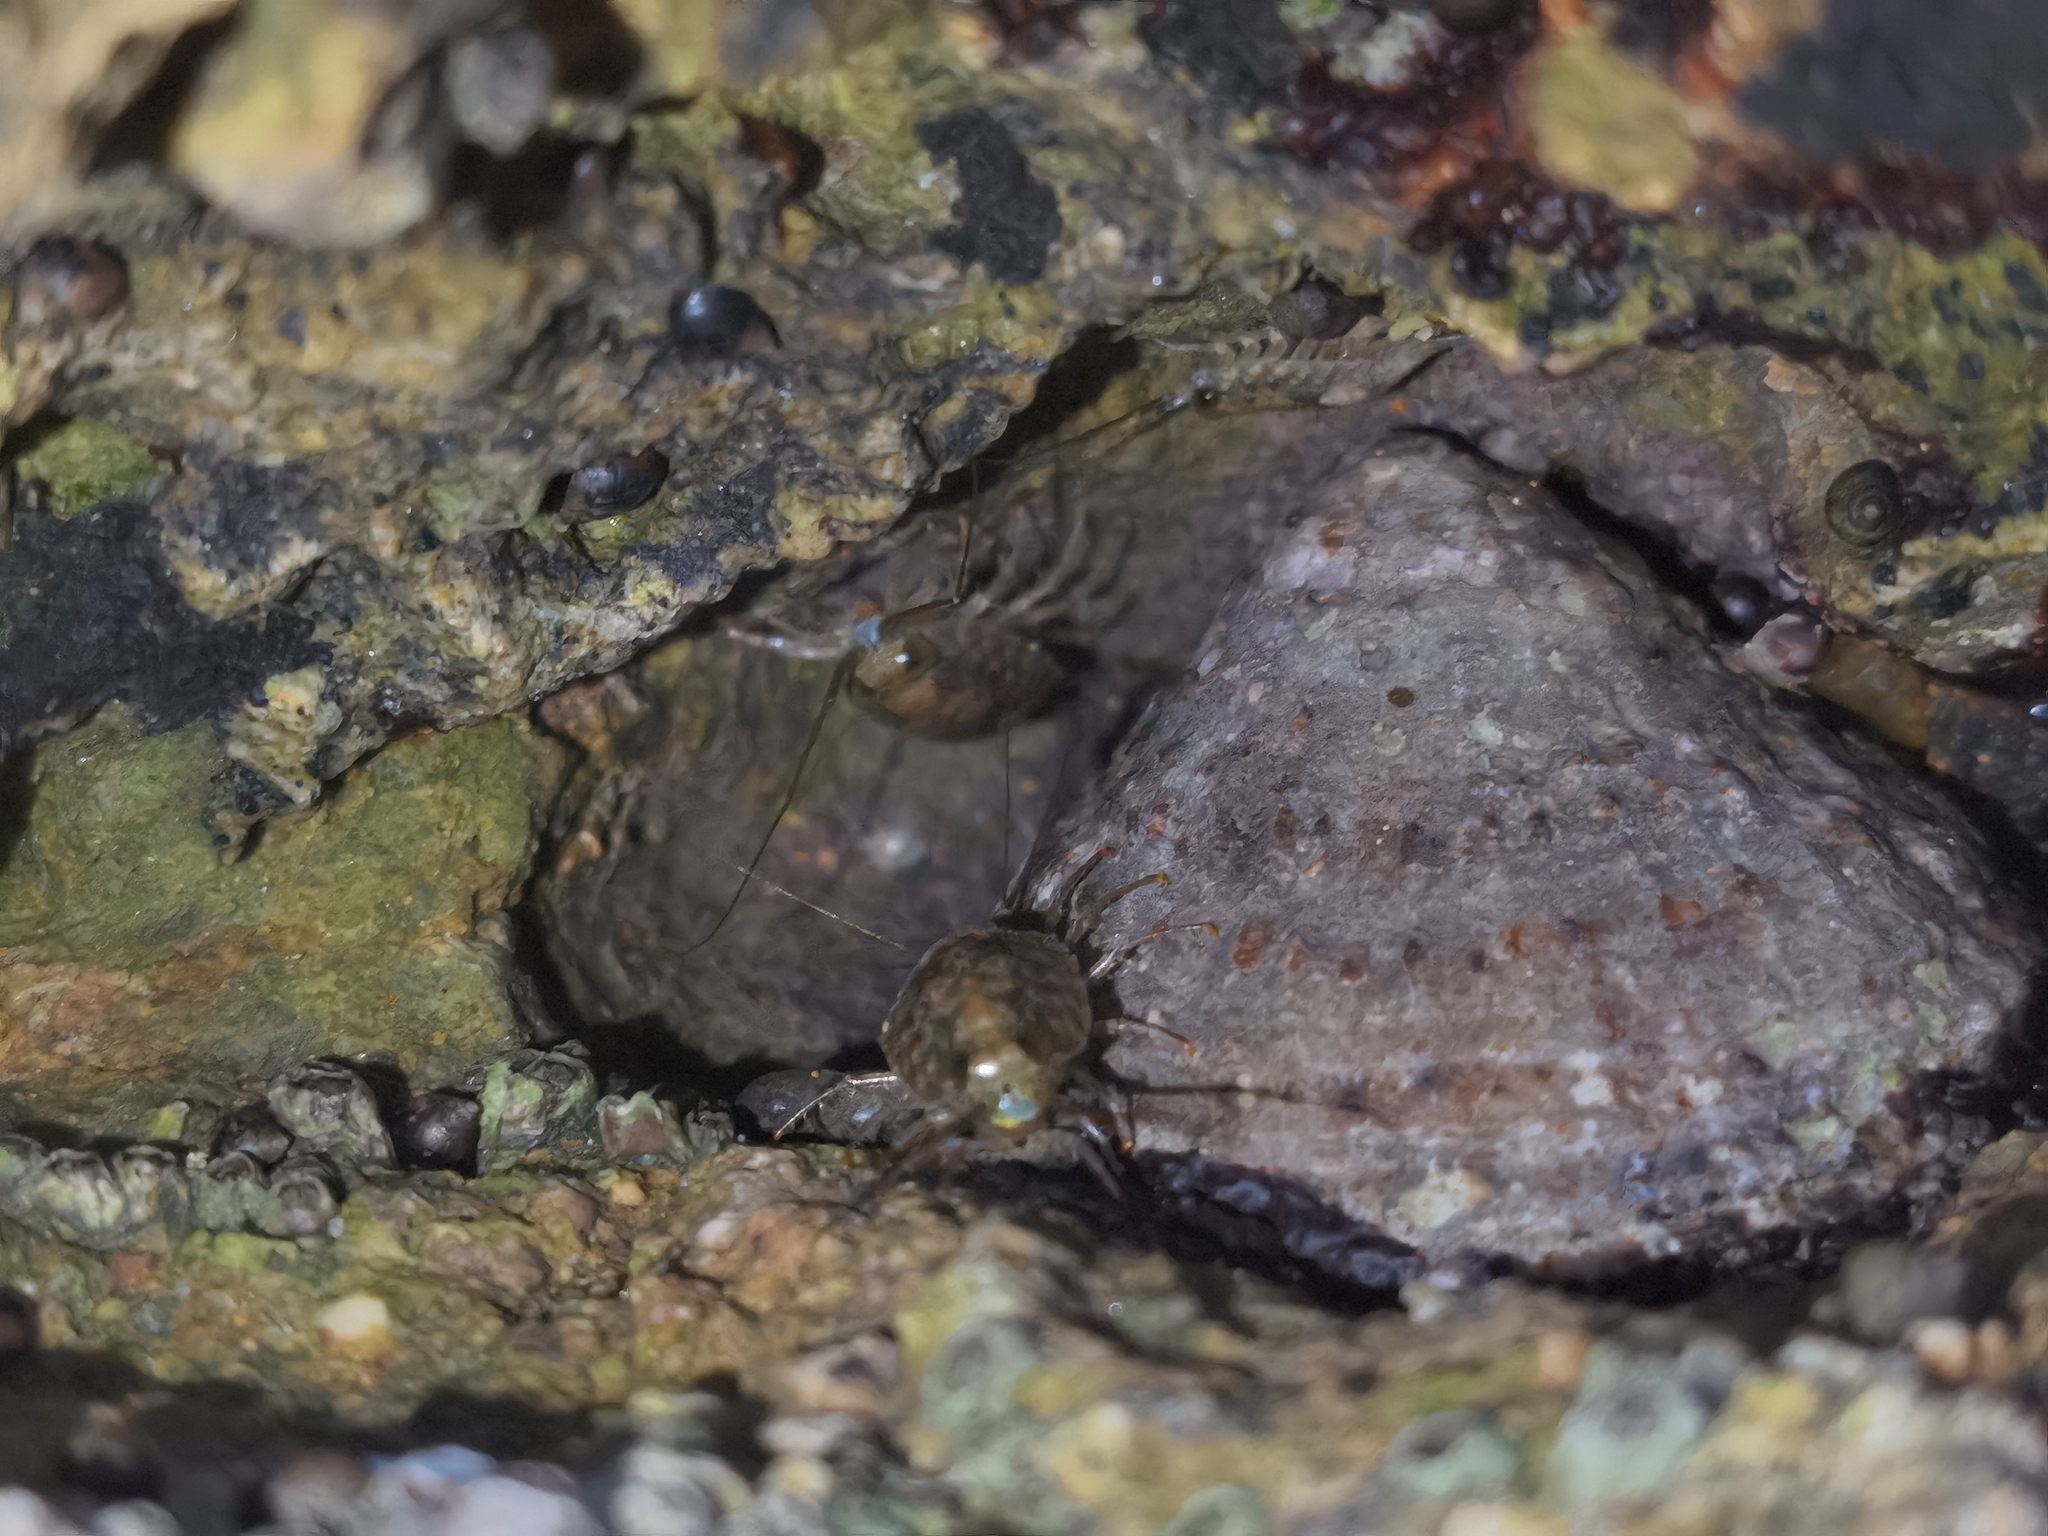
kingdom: Animalia
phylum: Arthropoda
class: Malacostraca
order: Isopoda
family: Ligiidae
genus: Ligia
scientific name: Ligia italica
